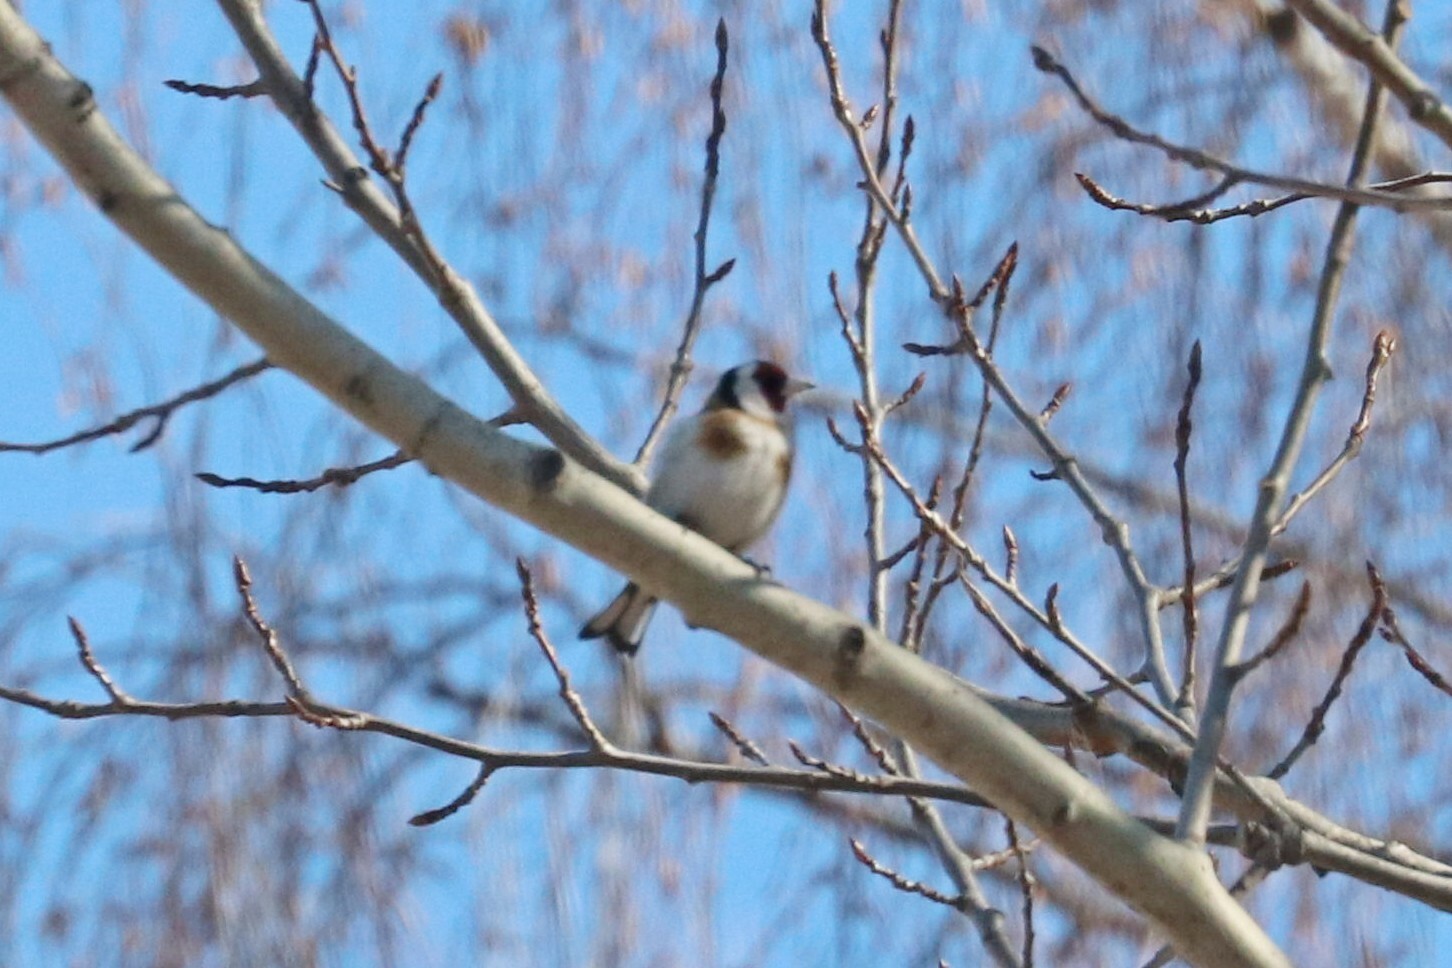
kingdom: Animalia
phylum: Chordata
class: Aves
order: Passeriformes
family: Fringillidae
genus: Carduelis
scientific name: Carduelis carduelis
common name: European goldfinch
